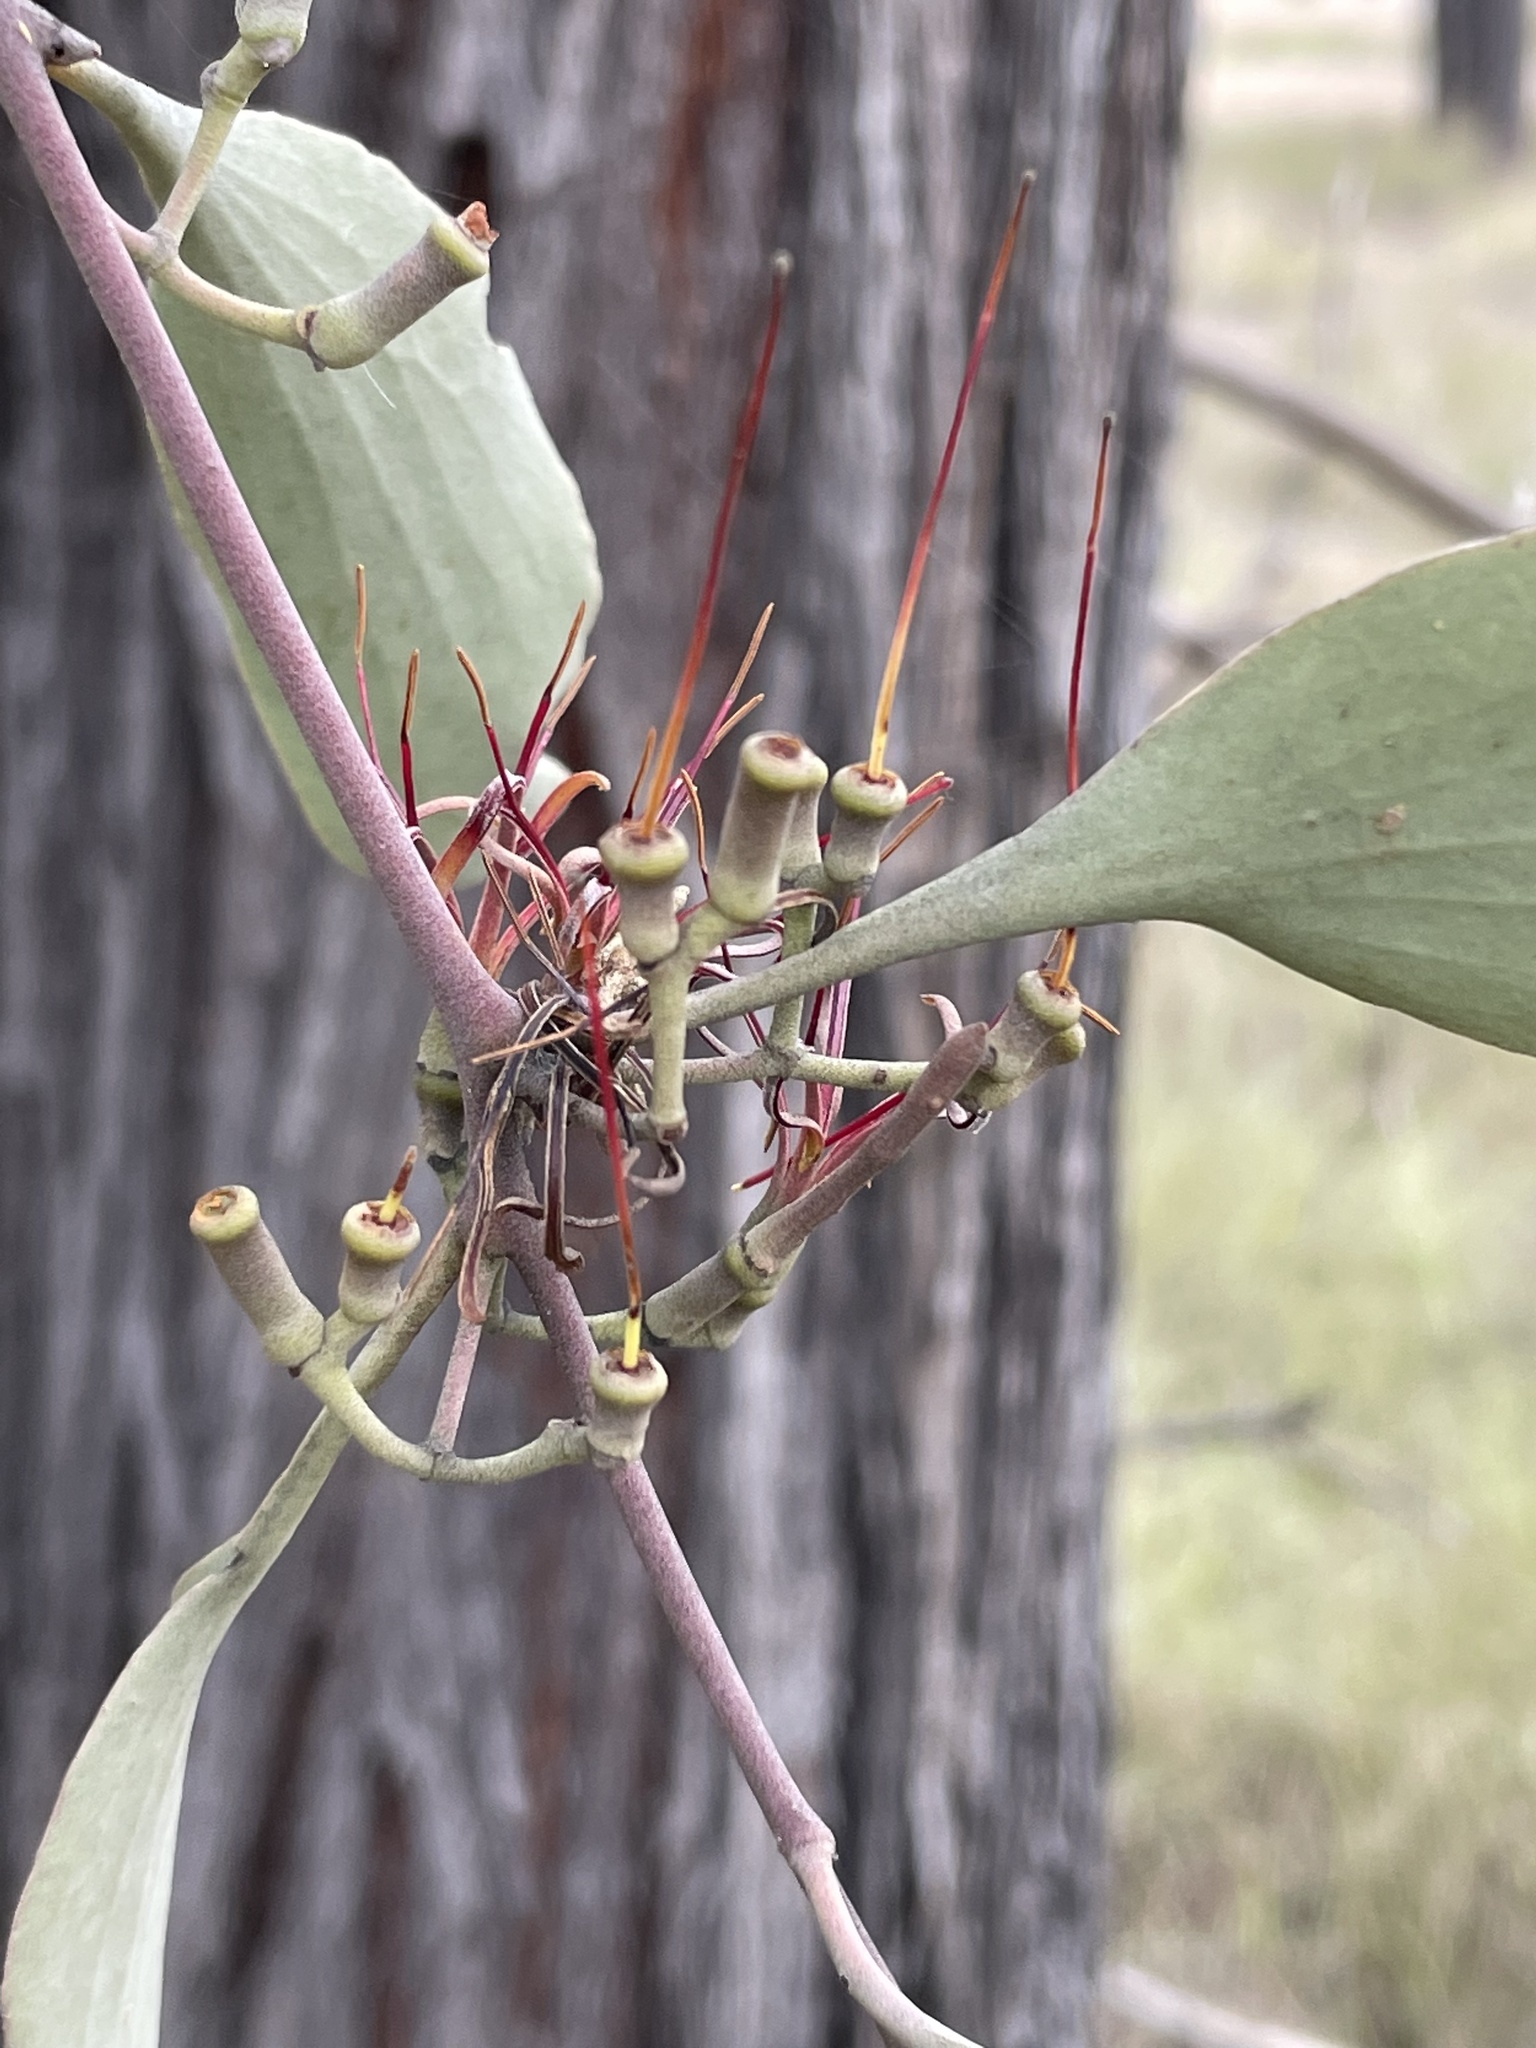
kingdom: Plantae
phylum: Tracheophyta
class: Magnoliopsida
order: Santalales
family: Loranthaceae
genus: Amyema
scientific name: Amyema quandang
